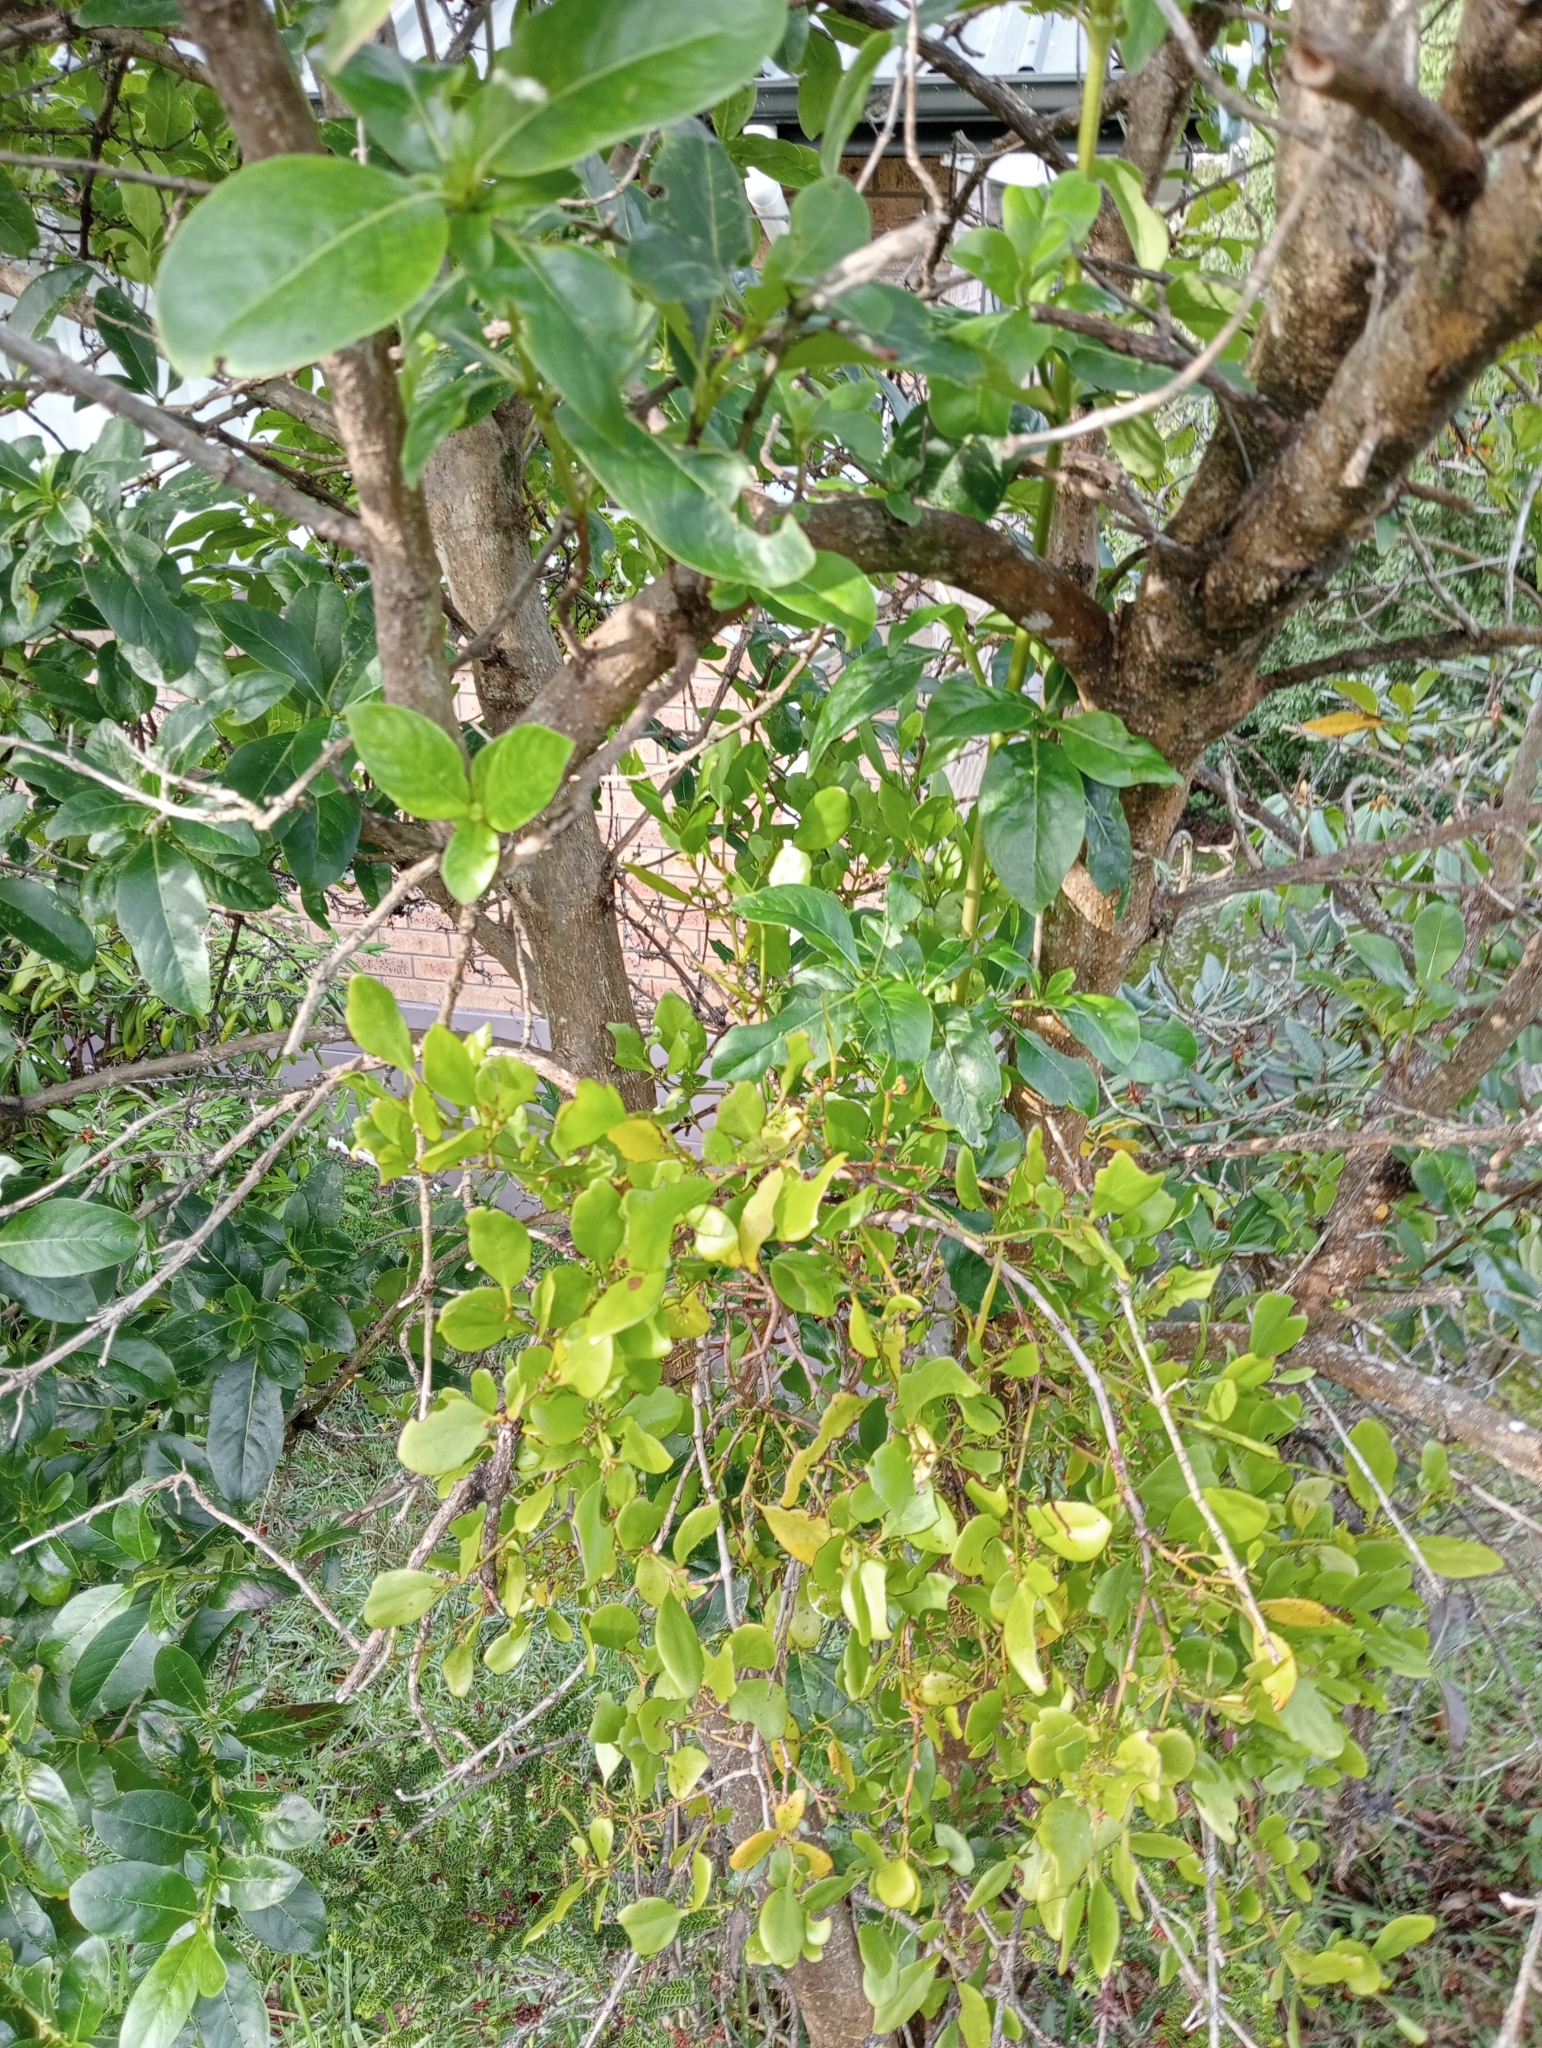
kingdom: Plantae
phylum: Tracheophyta
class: Magnoliopsida
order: Santalales
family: Loranthaceae
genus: Ileostylus
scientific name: Ileostylus micranthus
